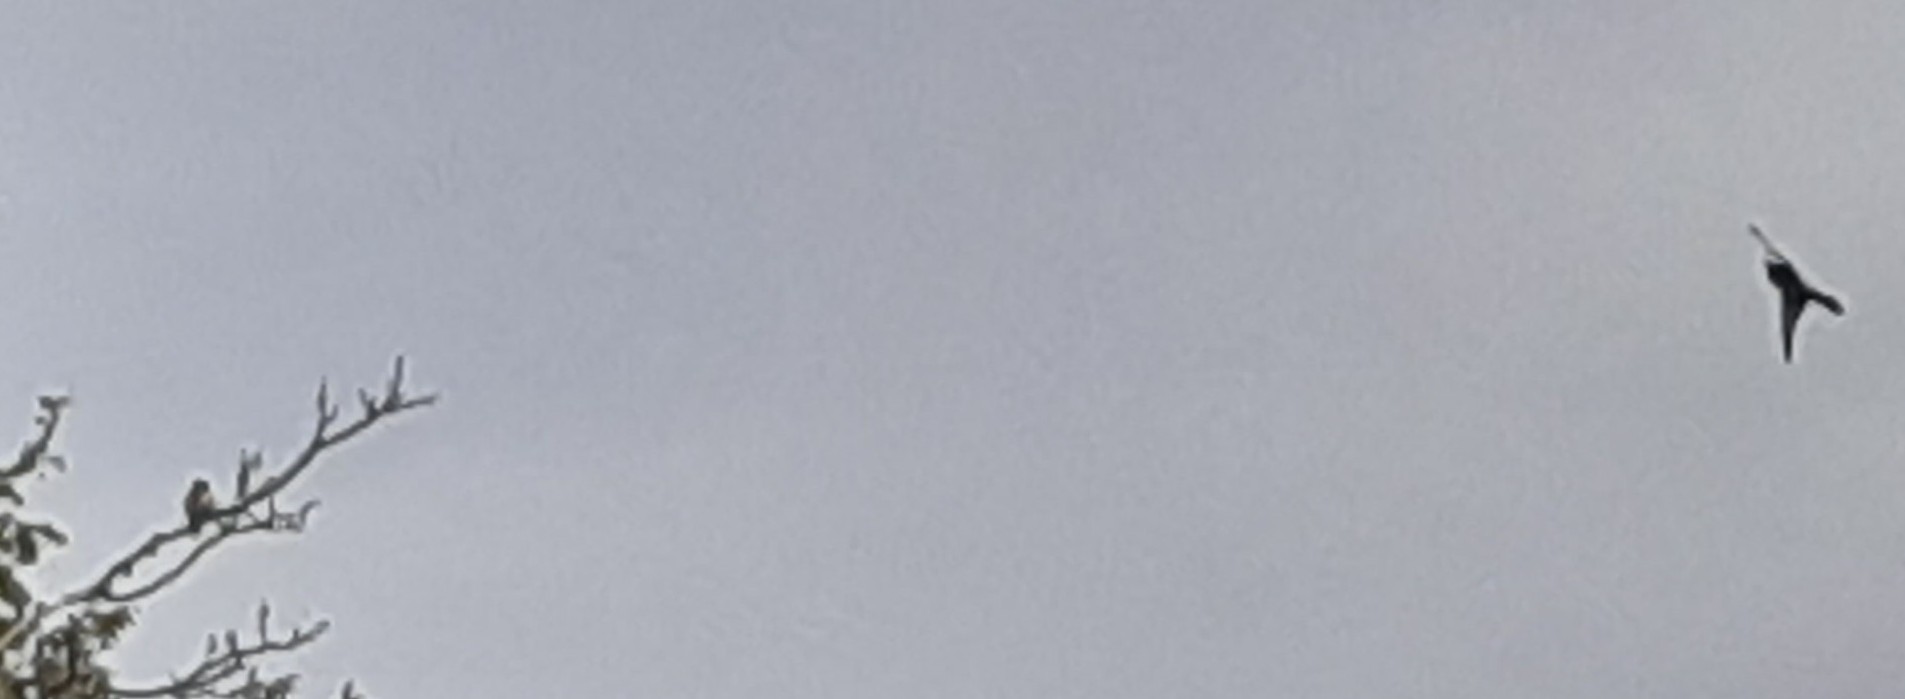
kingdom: Animalia
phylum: Chordata
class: Aves
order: Coraciiformes
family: Meropidae
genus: Merops
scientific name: Merops apiaster
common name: European bee-eater
